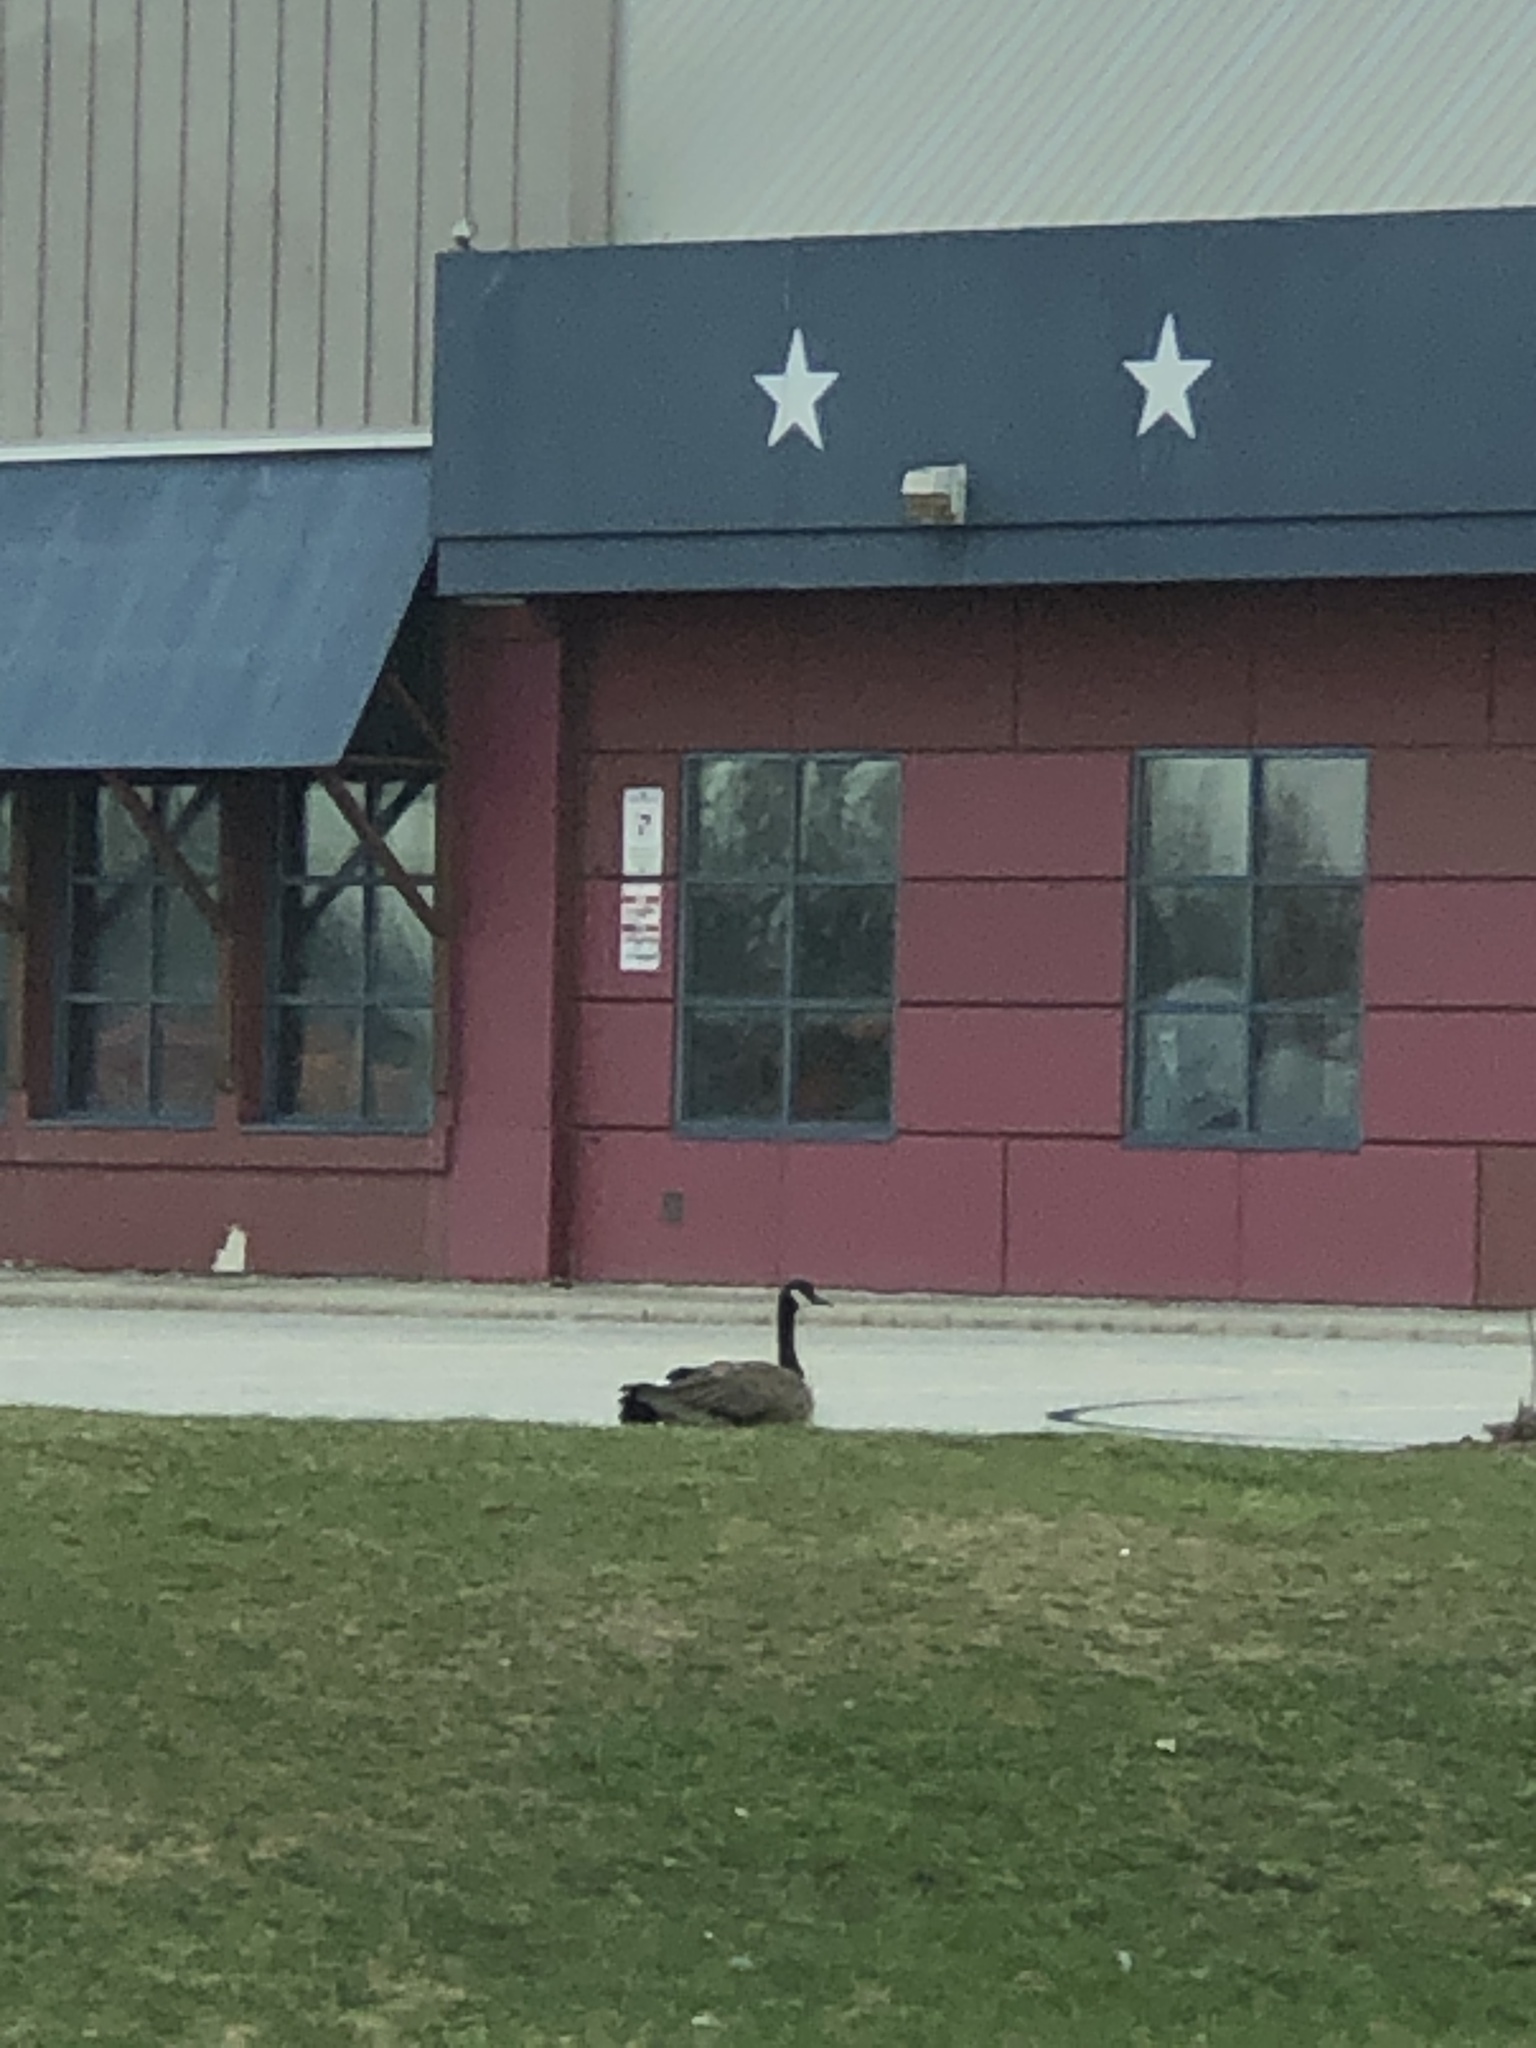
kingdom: Animalia
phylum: Chordata
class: Aves
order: Anseriformes
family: Anatidae
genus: Branta
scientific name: Branta canadensis
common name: Canada goose
